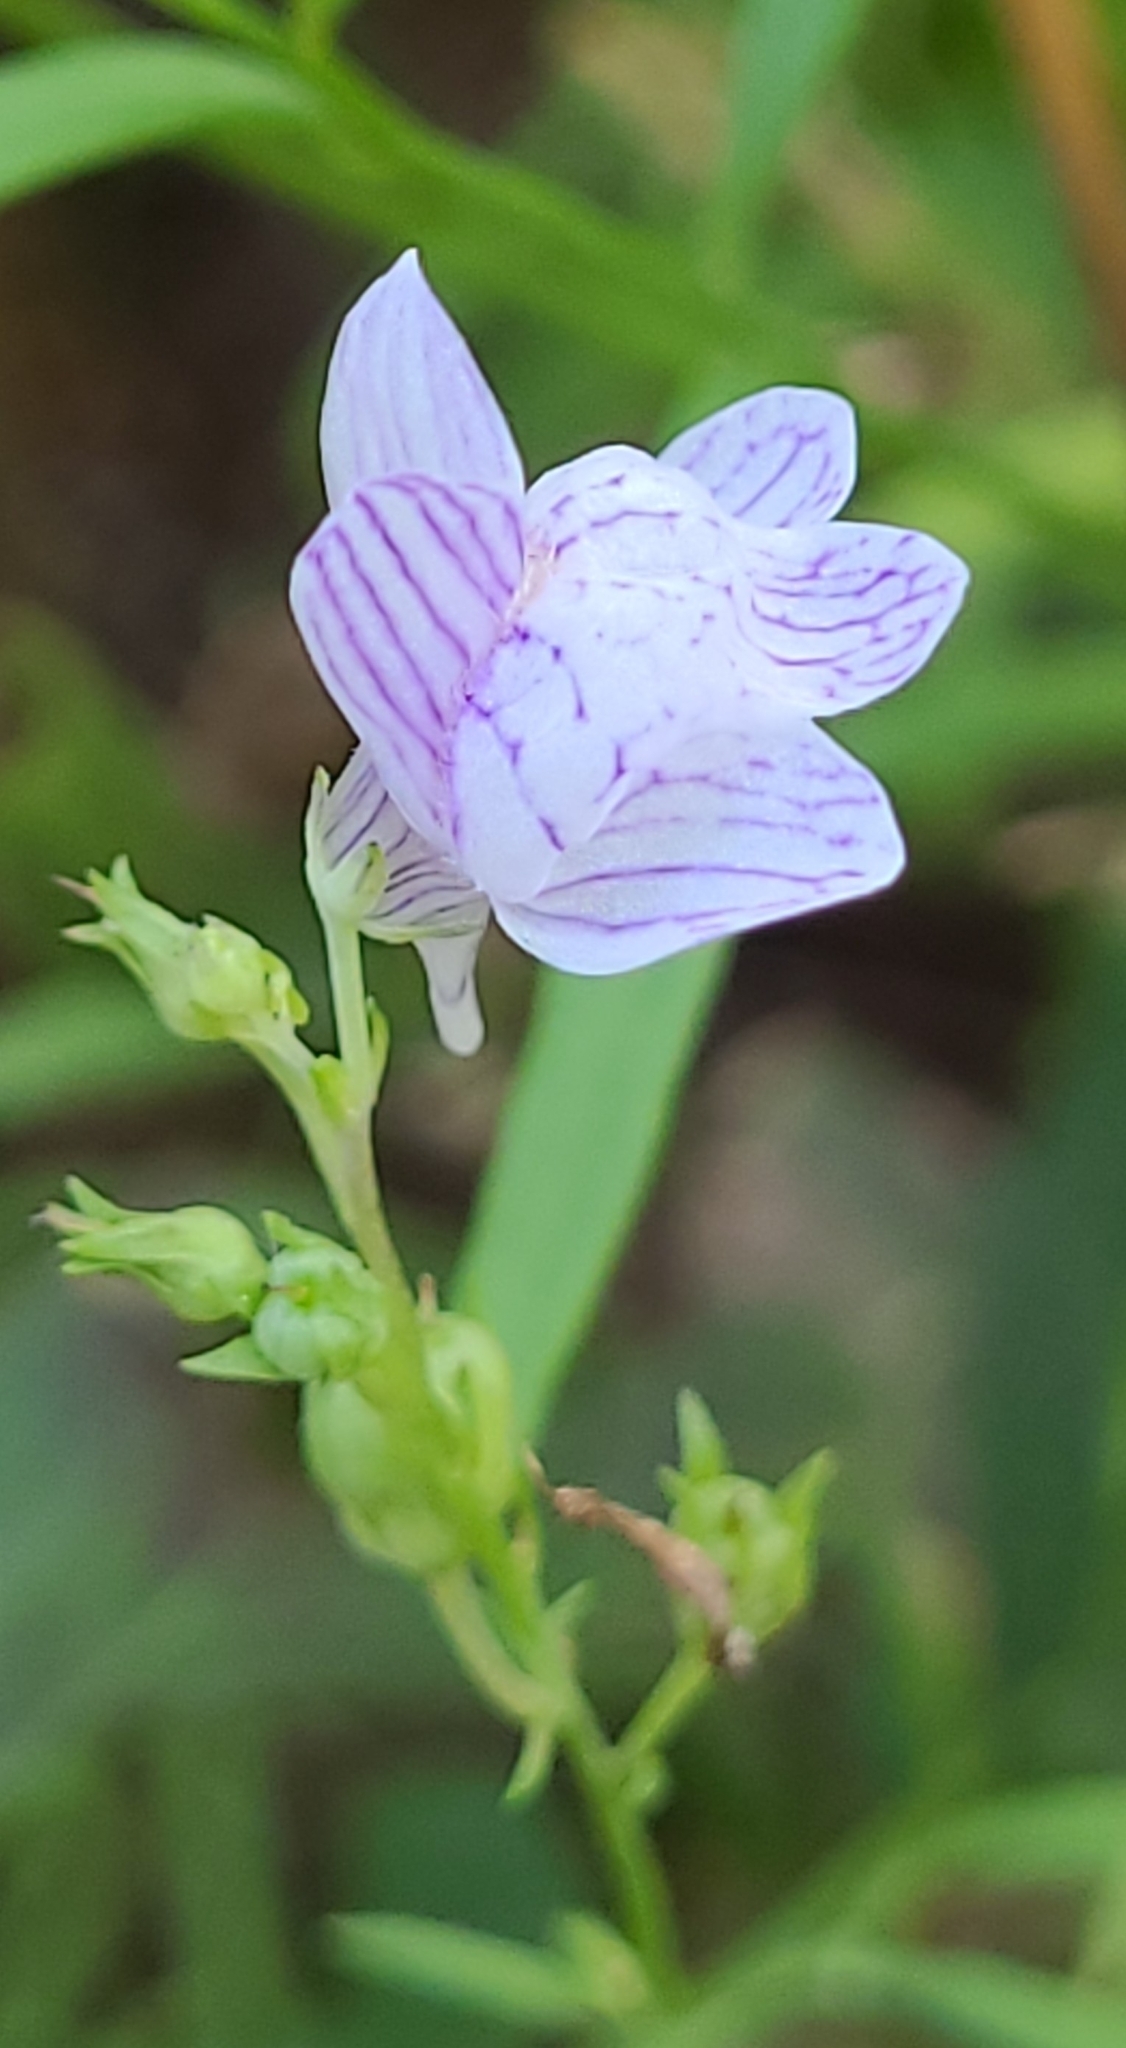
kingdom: Plantae
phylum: Tracheophyta
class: Magnoliopsida
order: Lamiales
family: Plantaginaceae
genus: Linaria
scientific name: Linaria repens
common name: Pale toadflax
